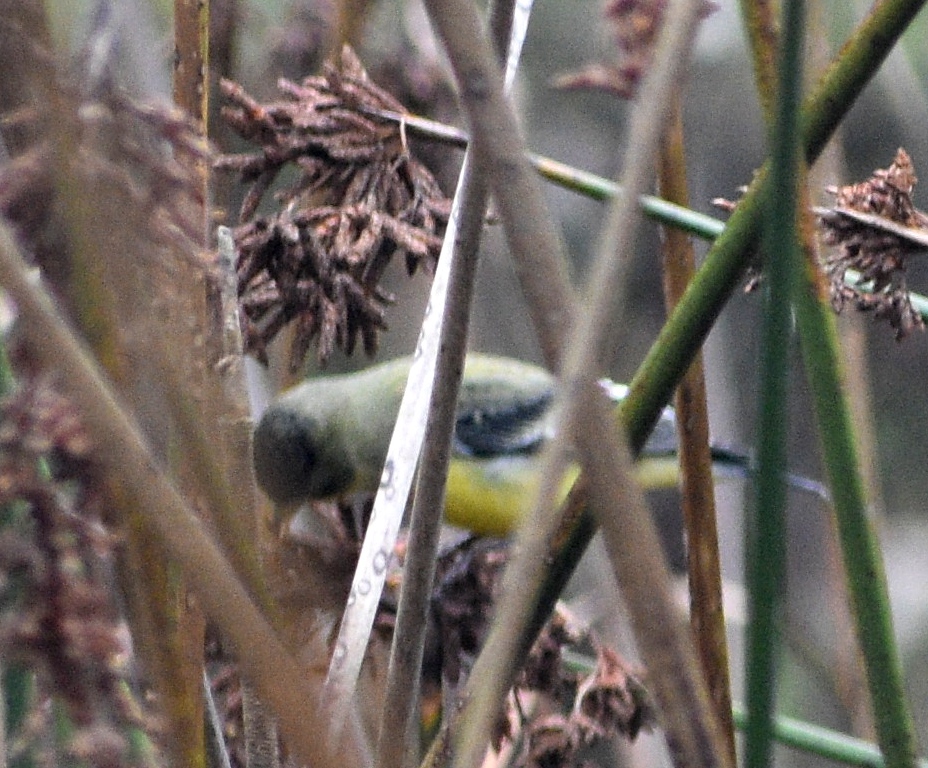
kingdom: Animalia
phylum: Chordata
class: Aves
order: Passeriformes
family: Fringillidae
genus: Spinus
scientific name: Spinus psaltria
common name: Lesser goldfinch
